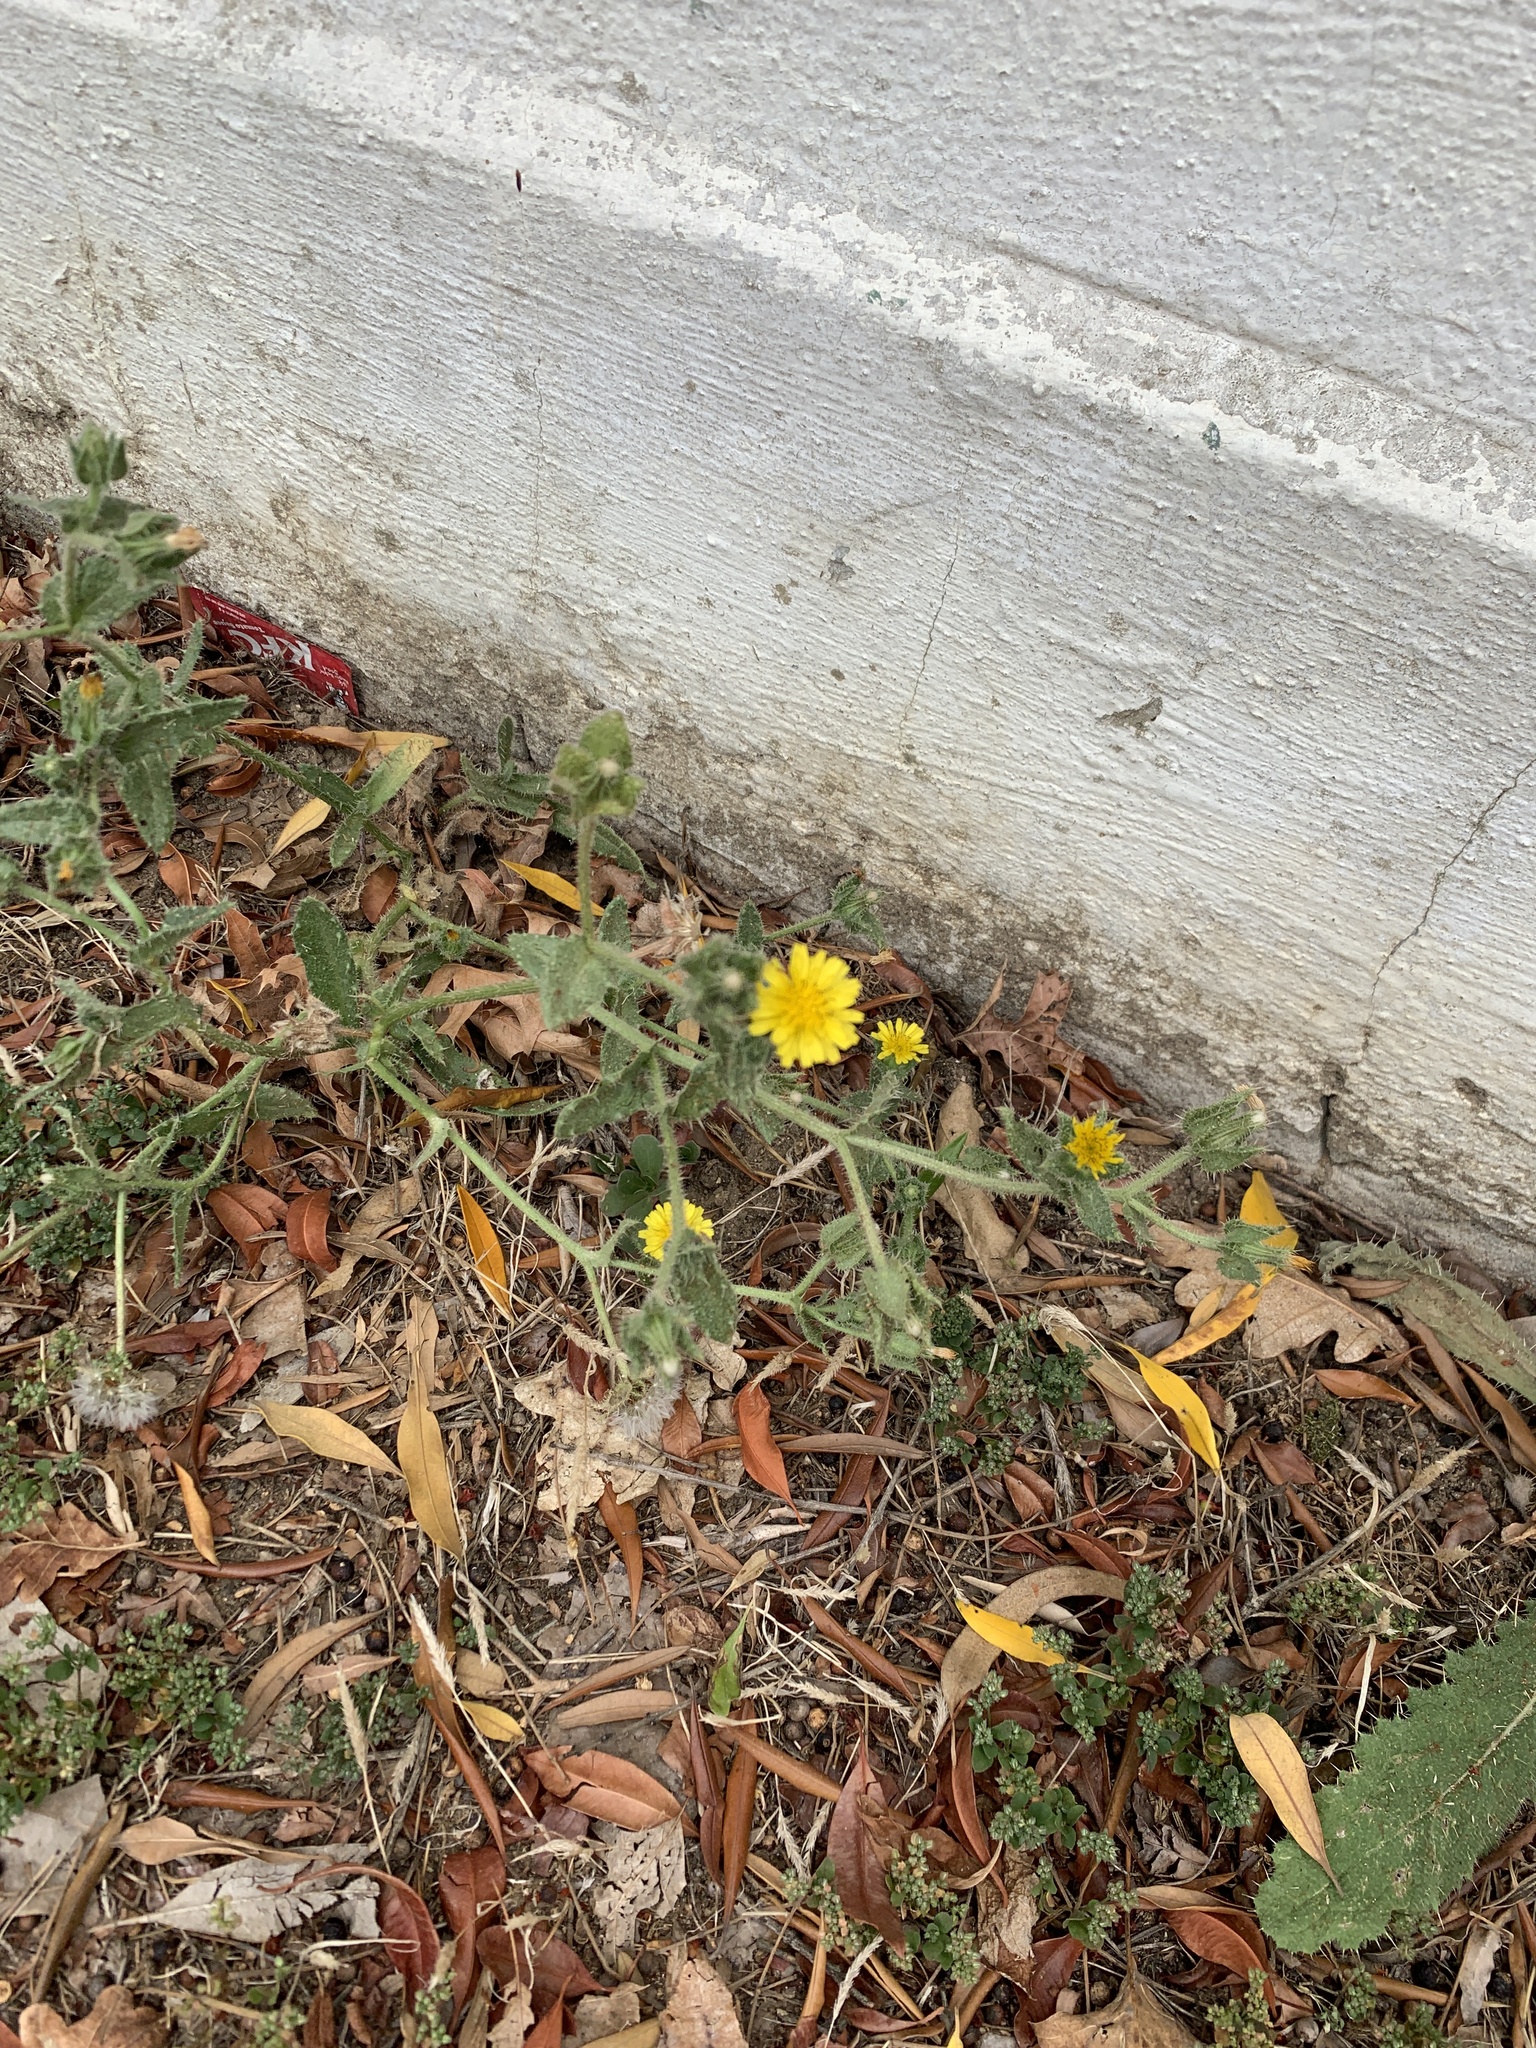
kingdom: Plantae
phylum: Tracheophyta
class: Magnoliopsida
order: Asterales
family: Asteraceae
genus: Helminthotheca
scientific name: Helminthotheca echioides
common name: Ox-tongue
